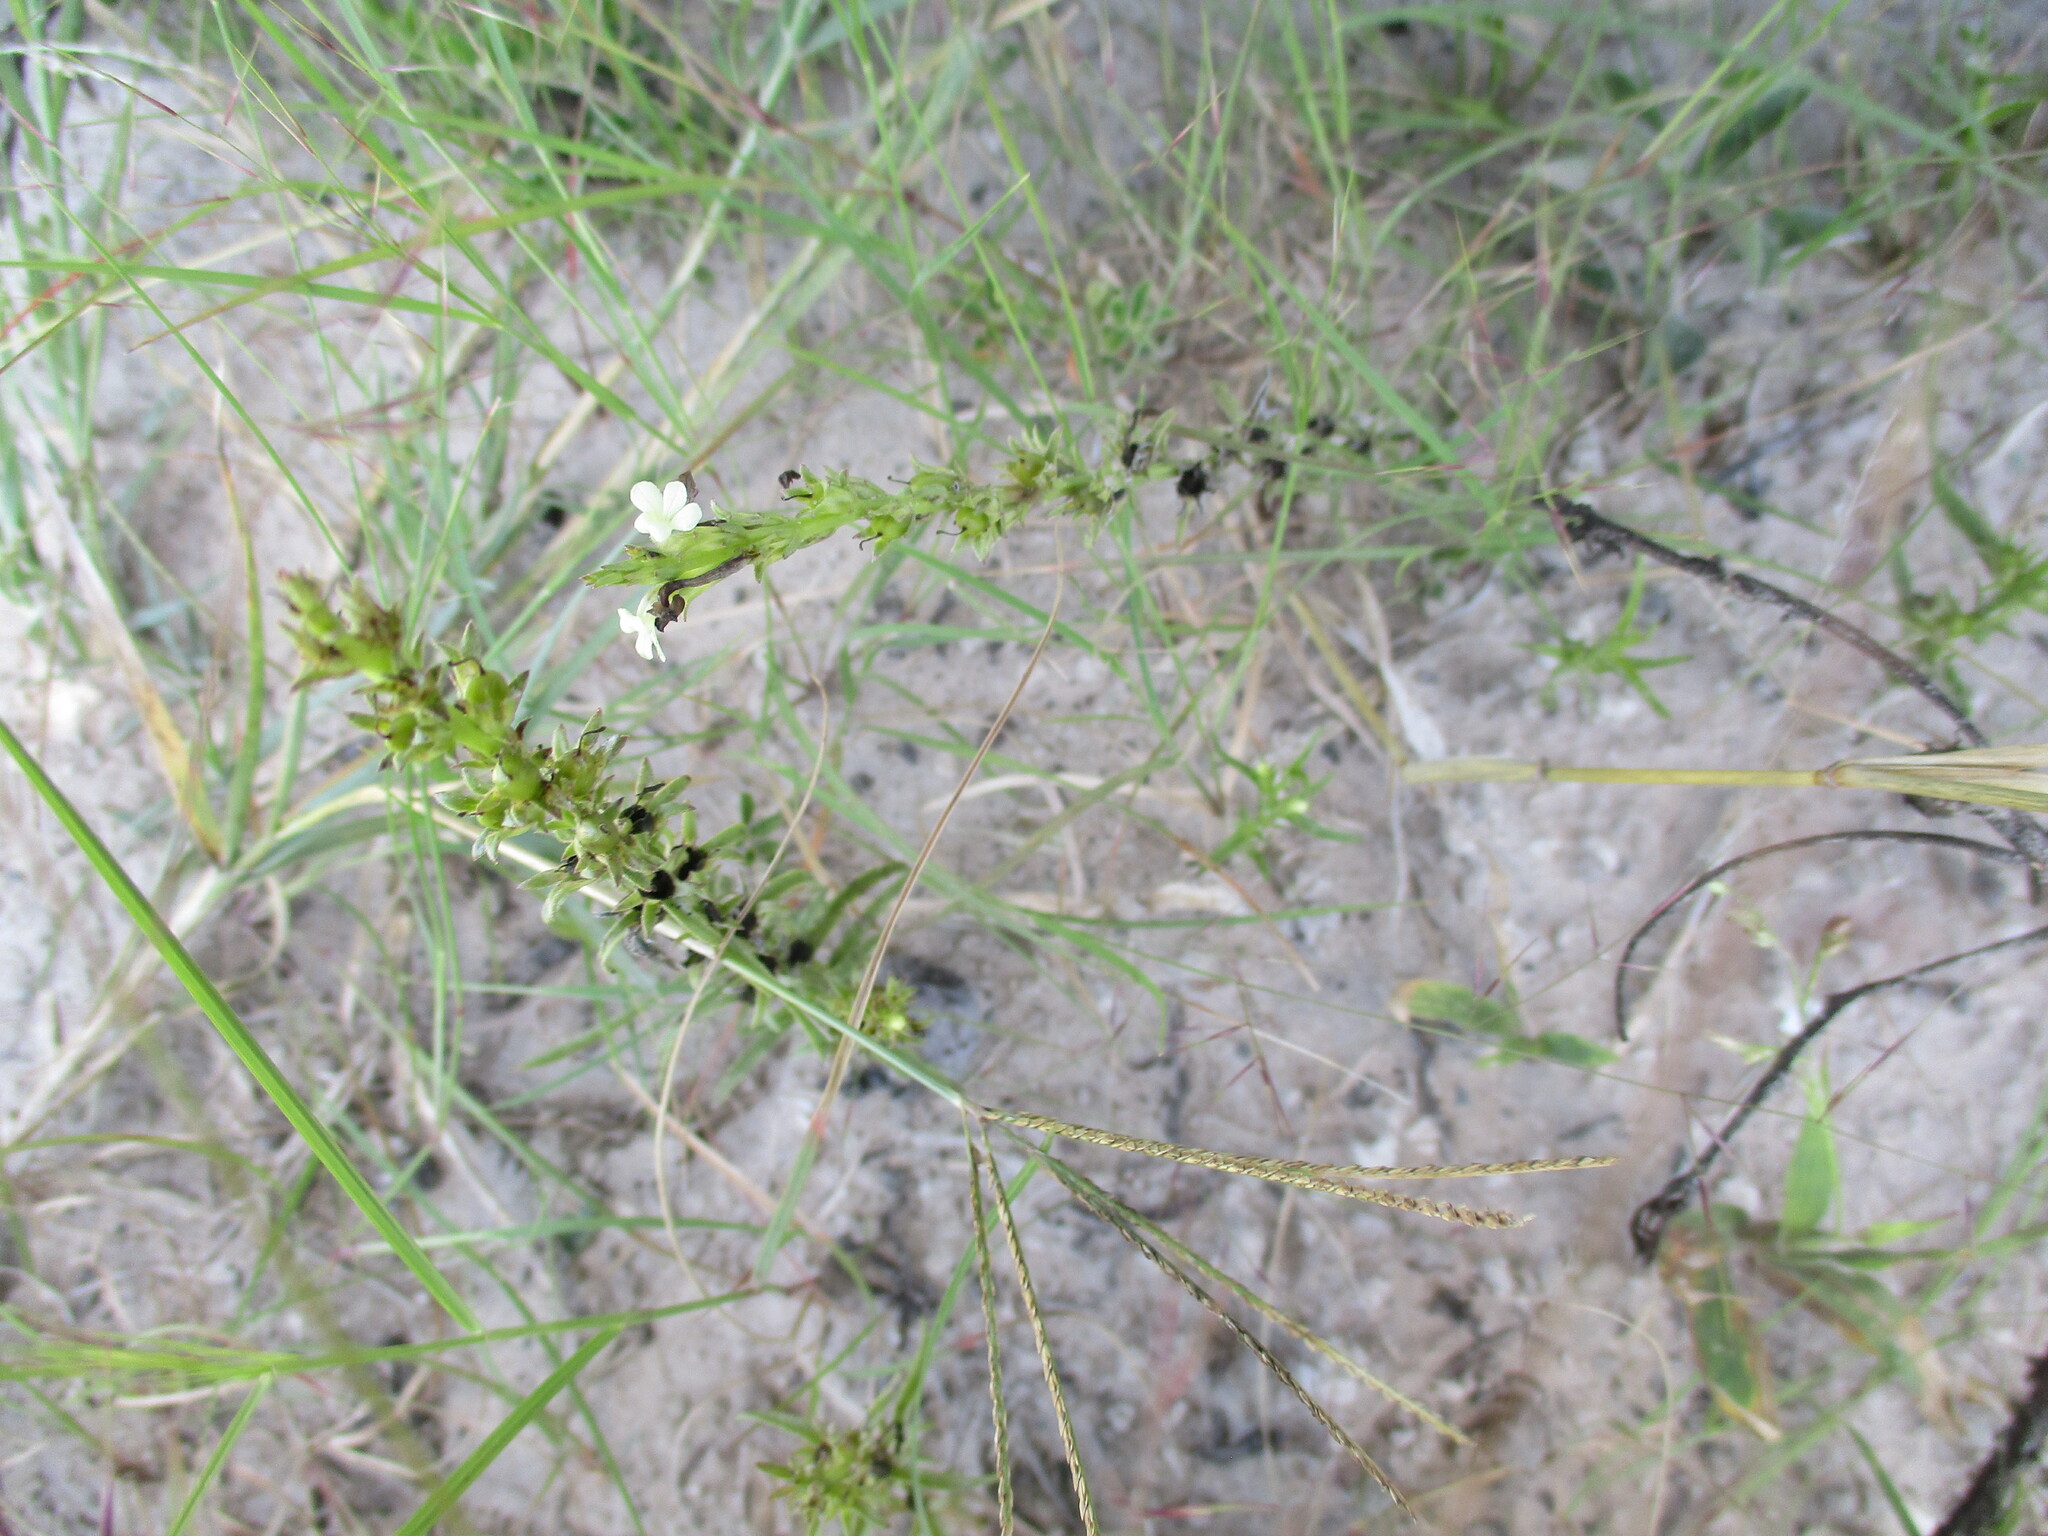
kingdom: Plantae
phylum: Tracheophyta
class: Magnoliopsida
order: Lamiales
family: Orobanchaceae
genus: Striga
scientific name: Striga asiatica
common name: Asiatic witchweed
